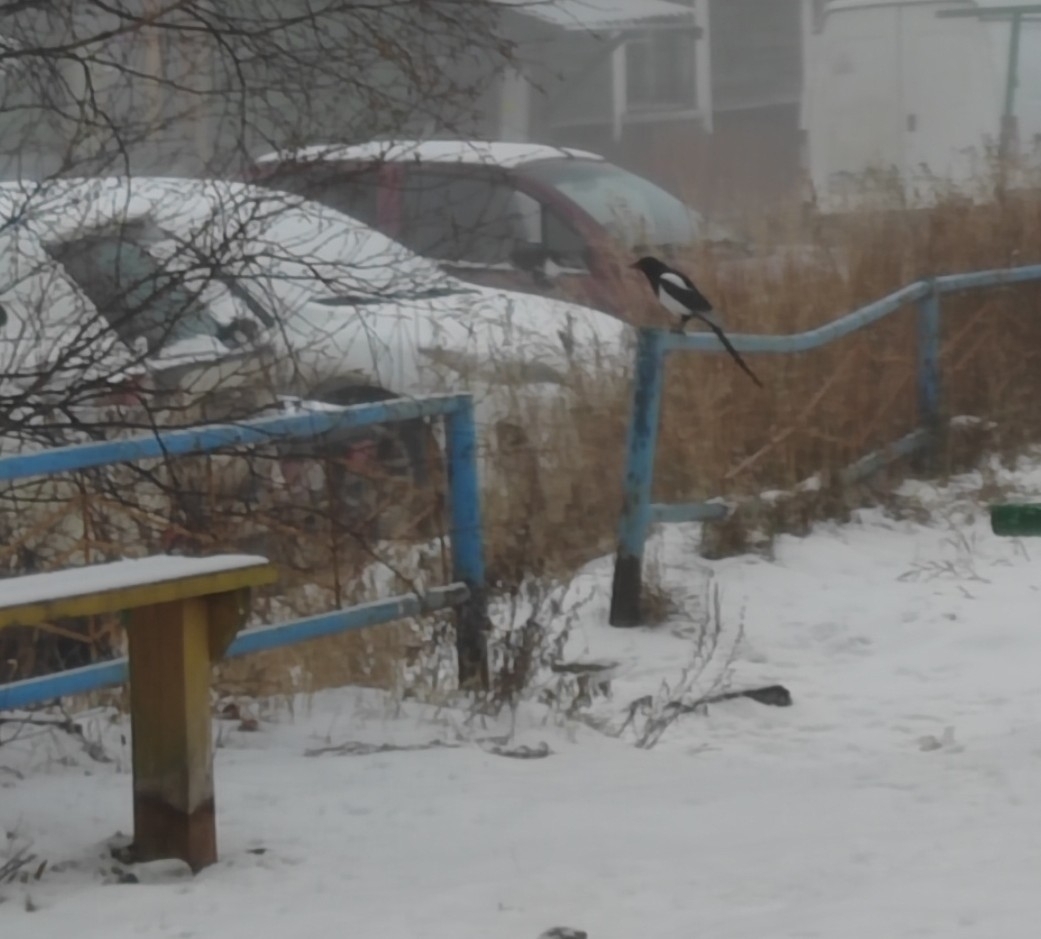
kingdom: Animalia
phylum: Chordata
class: Aves
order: Passeriformes
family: Corvidae
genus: Pica
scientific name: Pica pica
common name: Eurasian magpie
